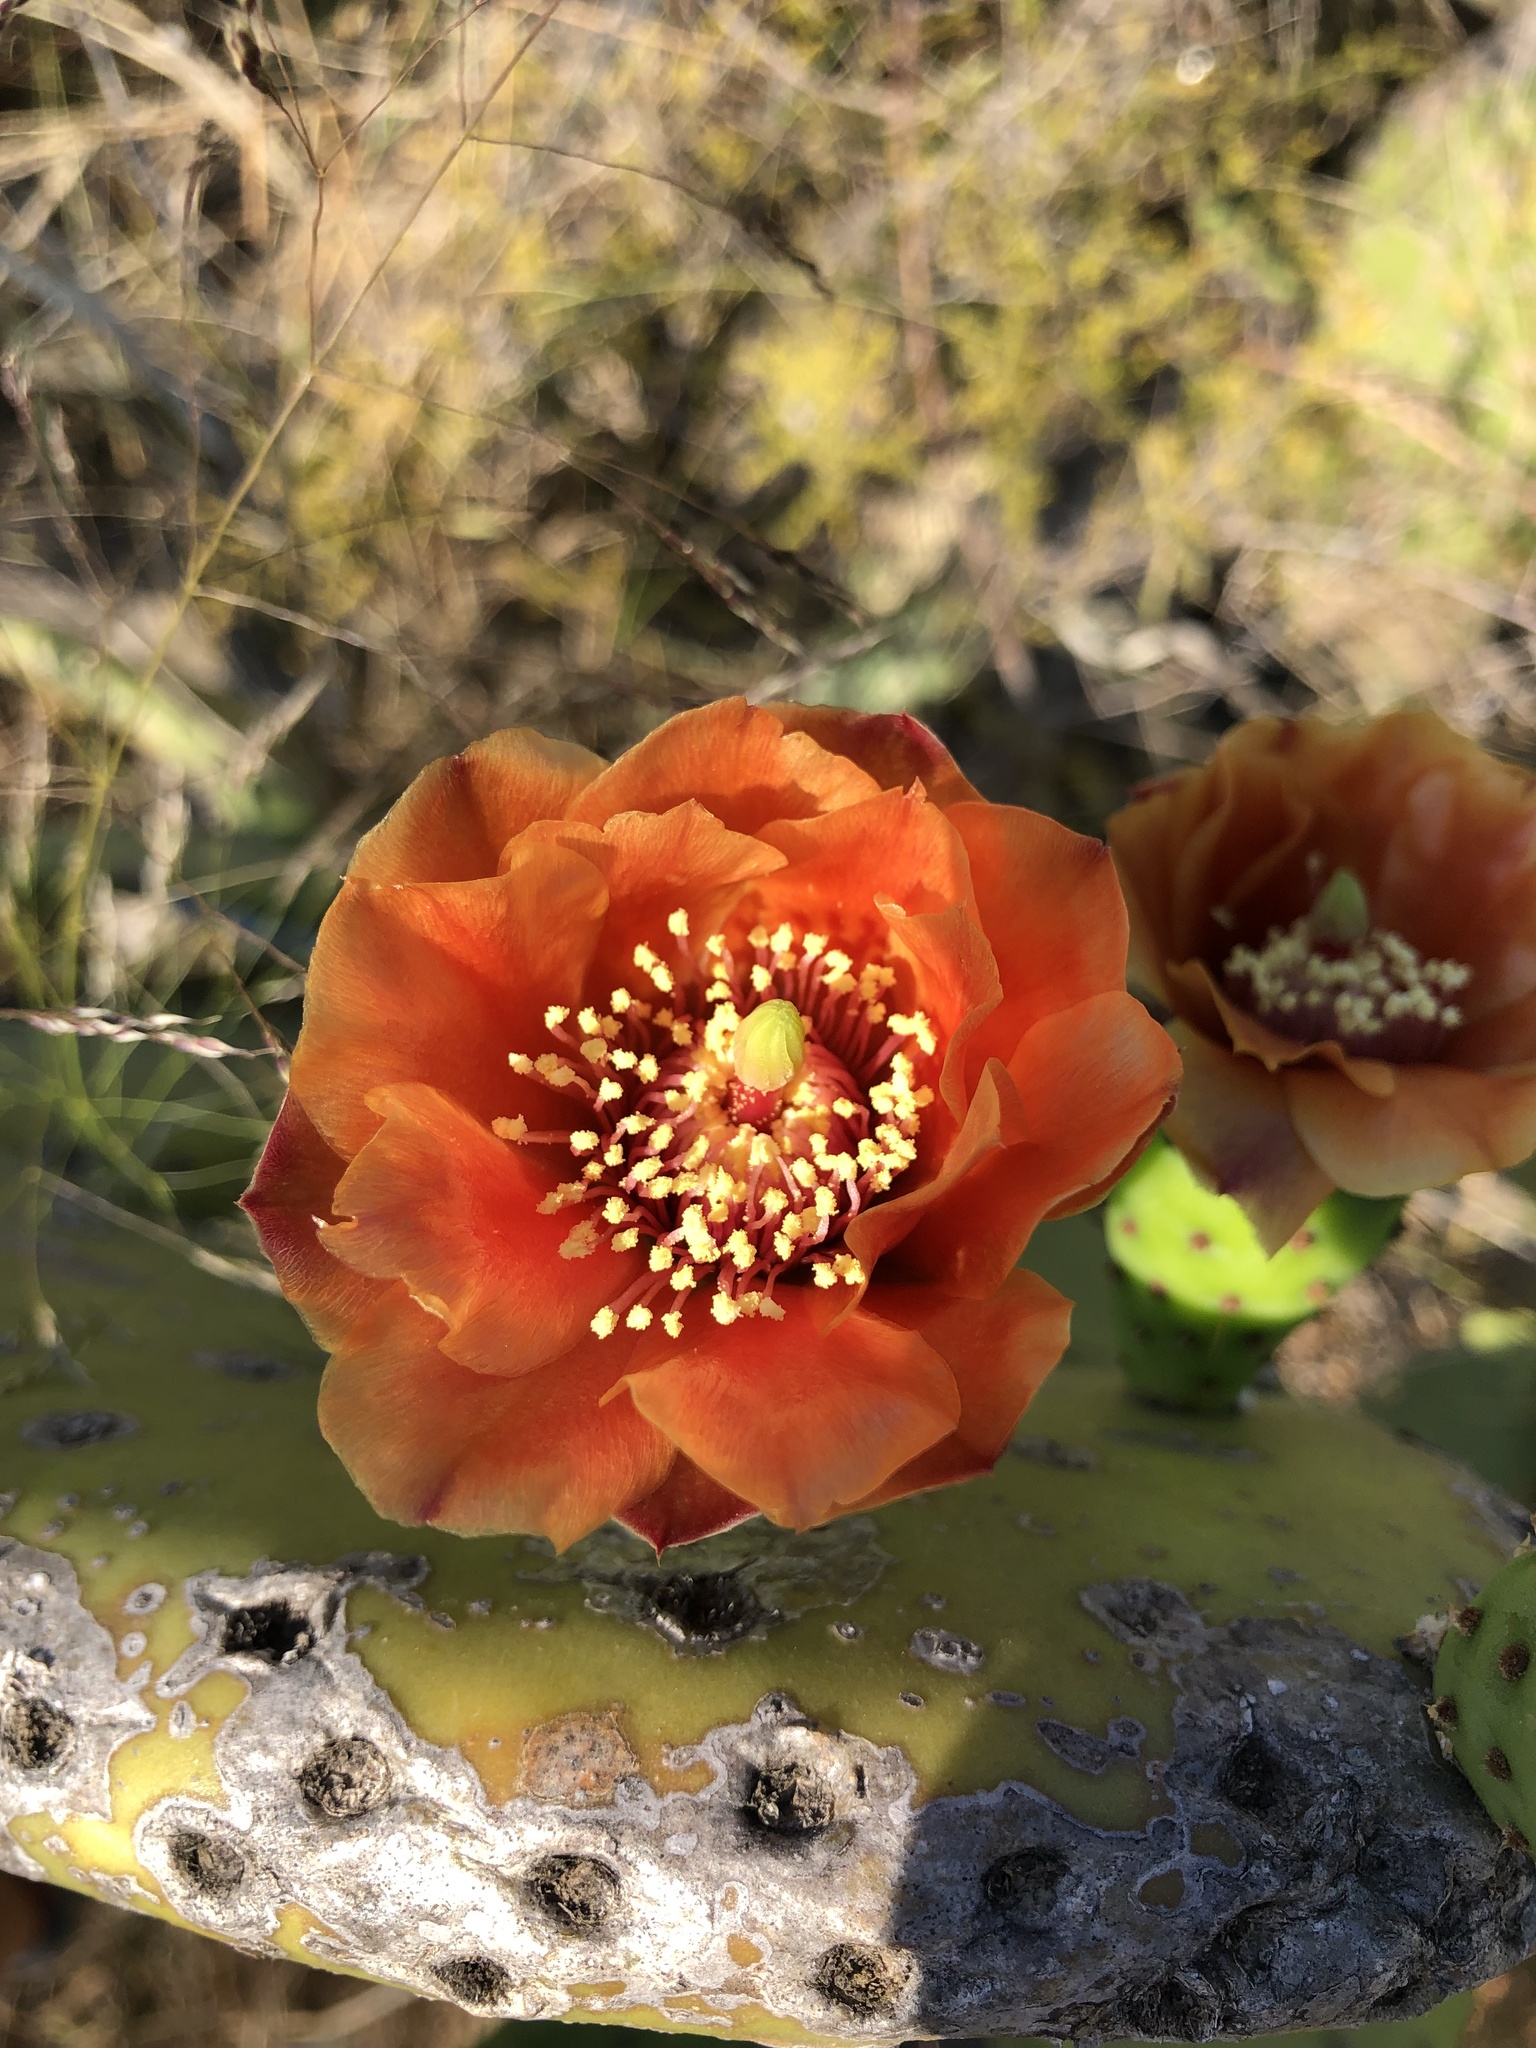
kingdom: Plantae
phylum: Tracheophyta
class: Magnoliopsida
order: Caryophyllales
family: Cactaceae
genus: Opuntia
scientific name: Opuntia ficus-indica
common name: Barbary fig
